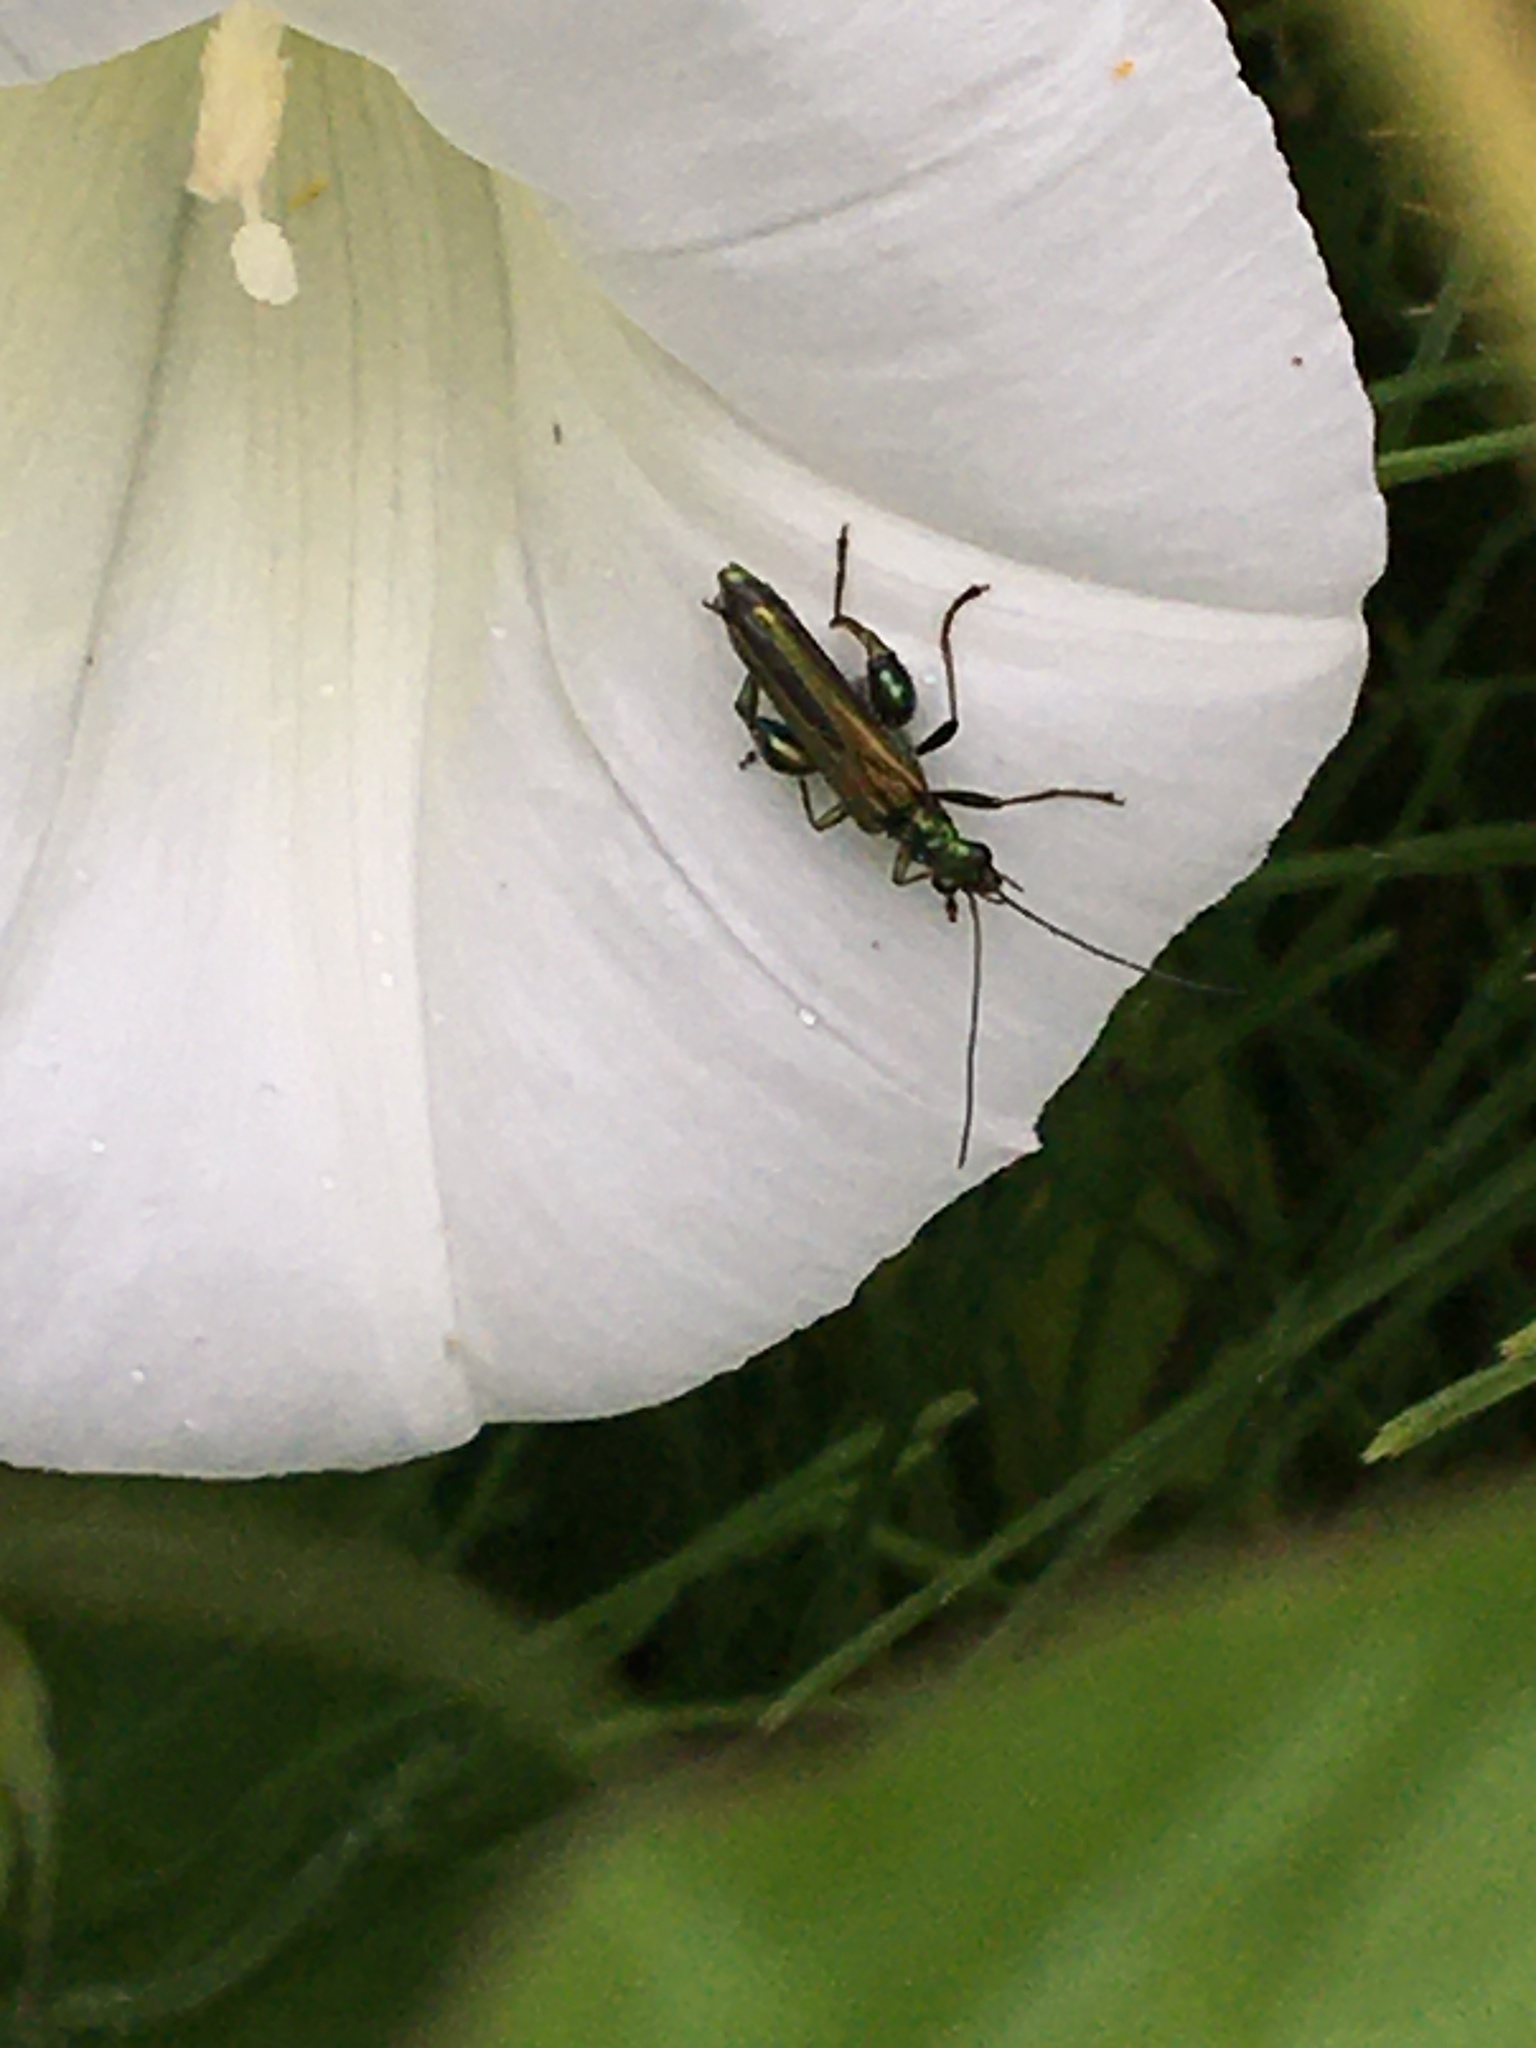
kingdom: Animalia
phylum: Arthropoda
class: Insecta
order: Coleoptera
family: Oedemeridae
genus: Oedemera
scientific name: Oedemera nobilis
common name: Swollen-thighed beetle
